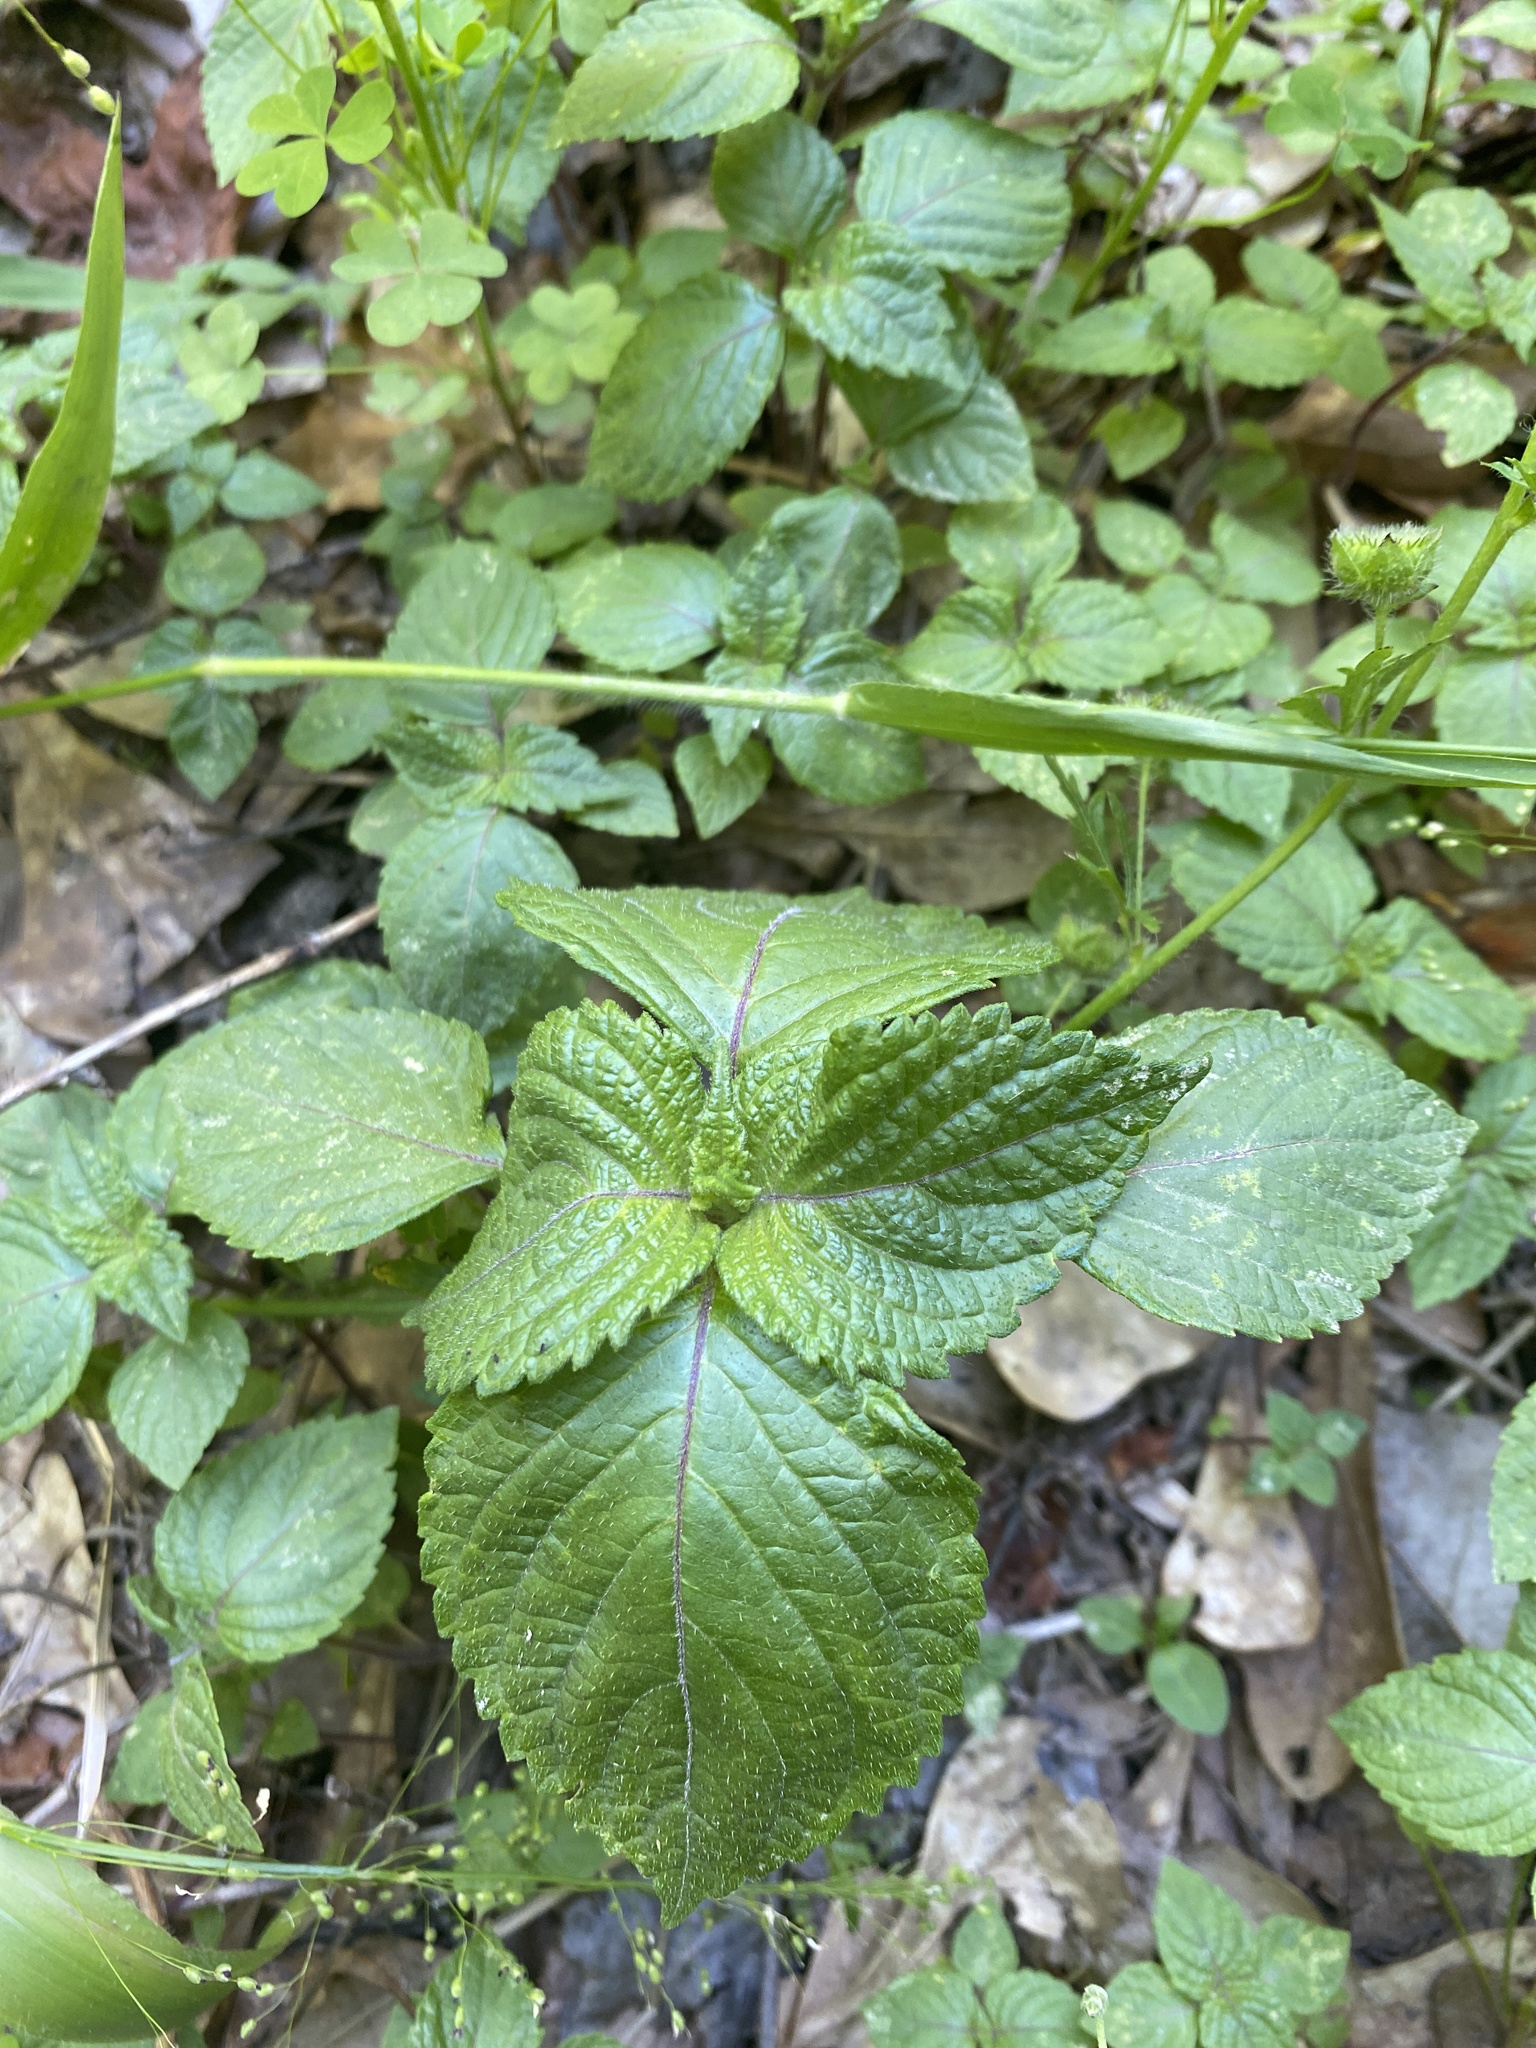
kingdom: Plantae
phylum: Tracheophyta
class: Magnoliopsida
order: Lamiales
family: Lamiaceae
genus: Perilla
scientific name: Perilla frutescens
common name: Perilla
